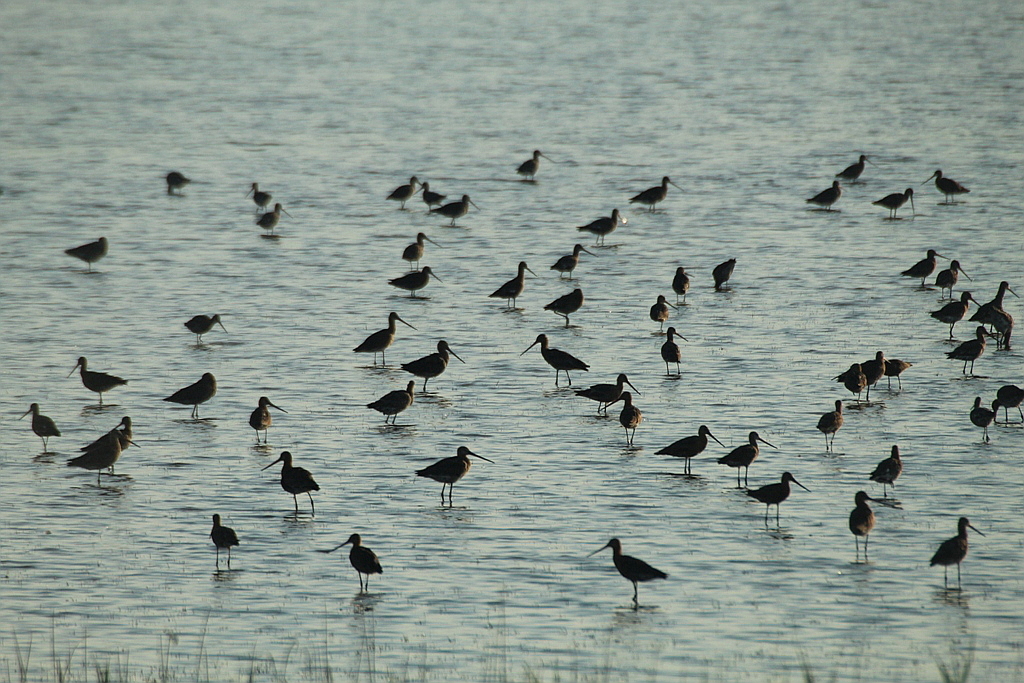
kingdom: Animalia
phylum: Chordata
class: Aves
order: Charadriiformes
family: Scolopacidae
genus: Limosa
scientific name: Limosa limosa
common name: Black-tailed godwit
